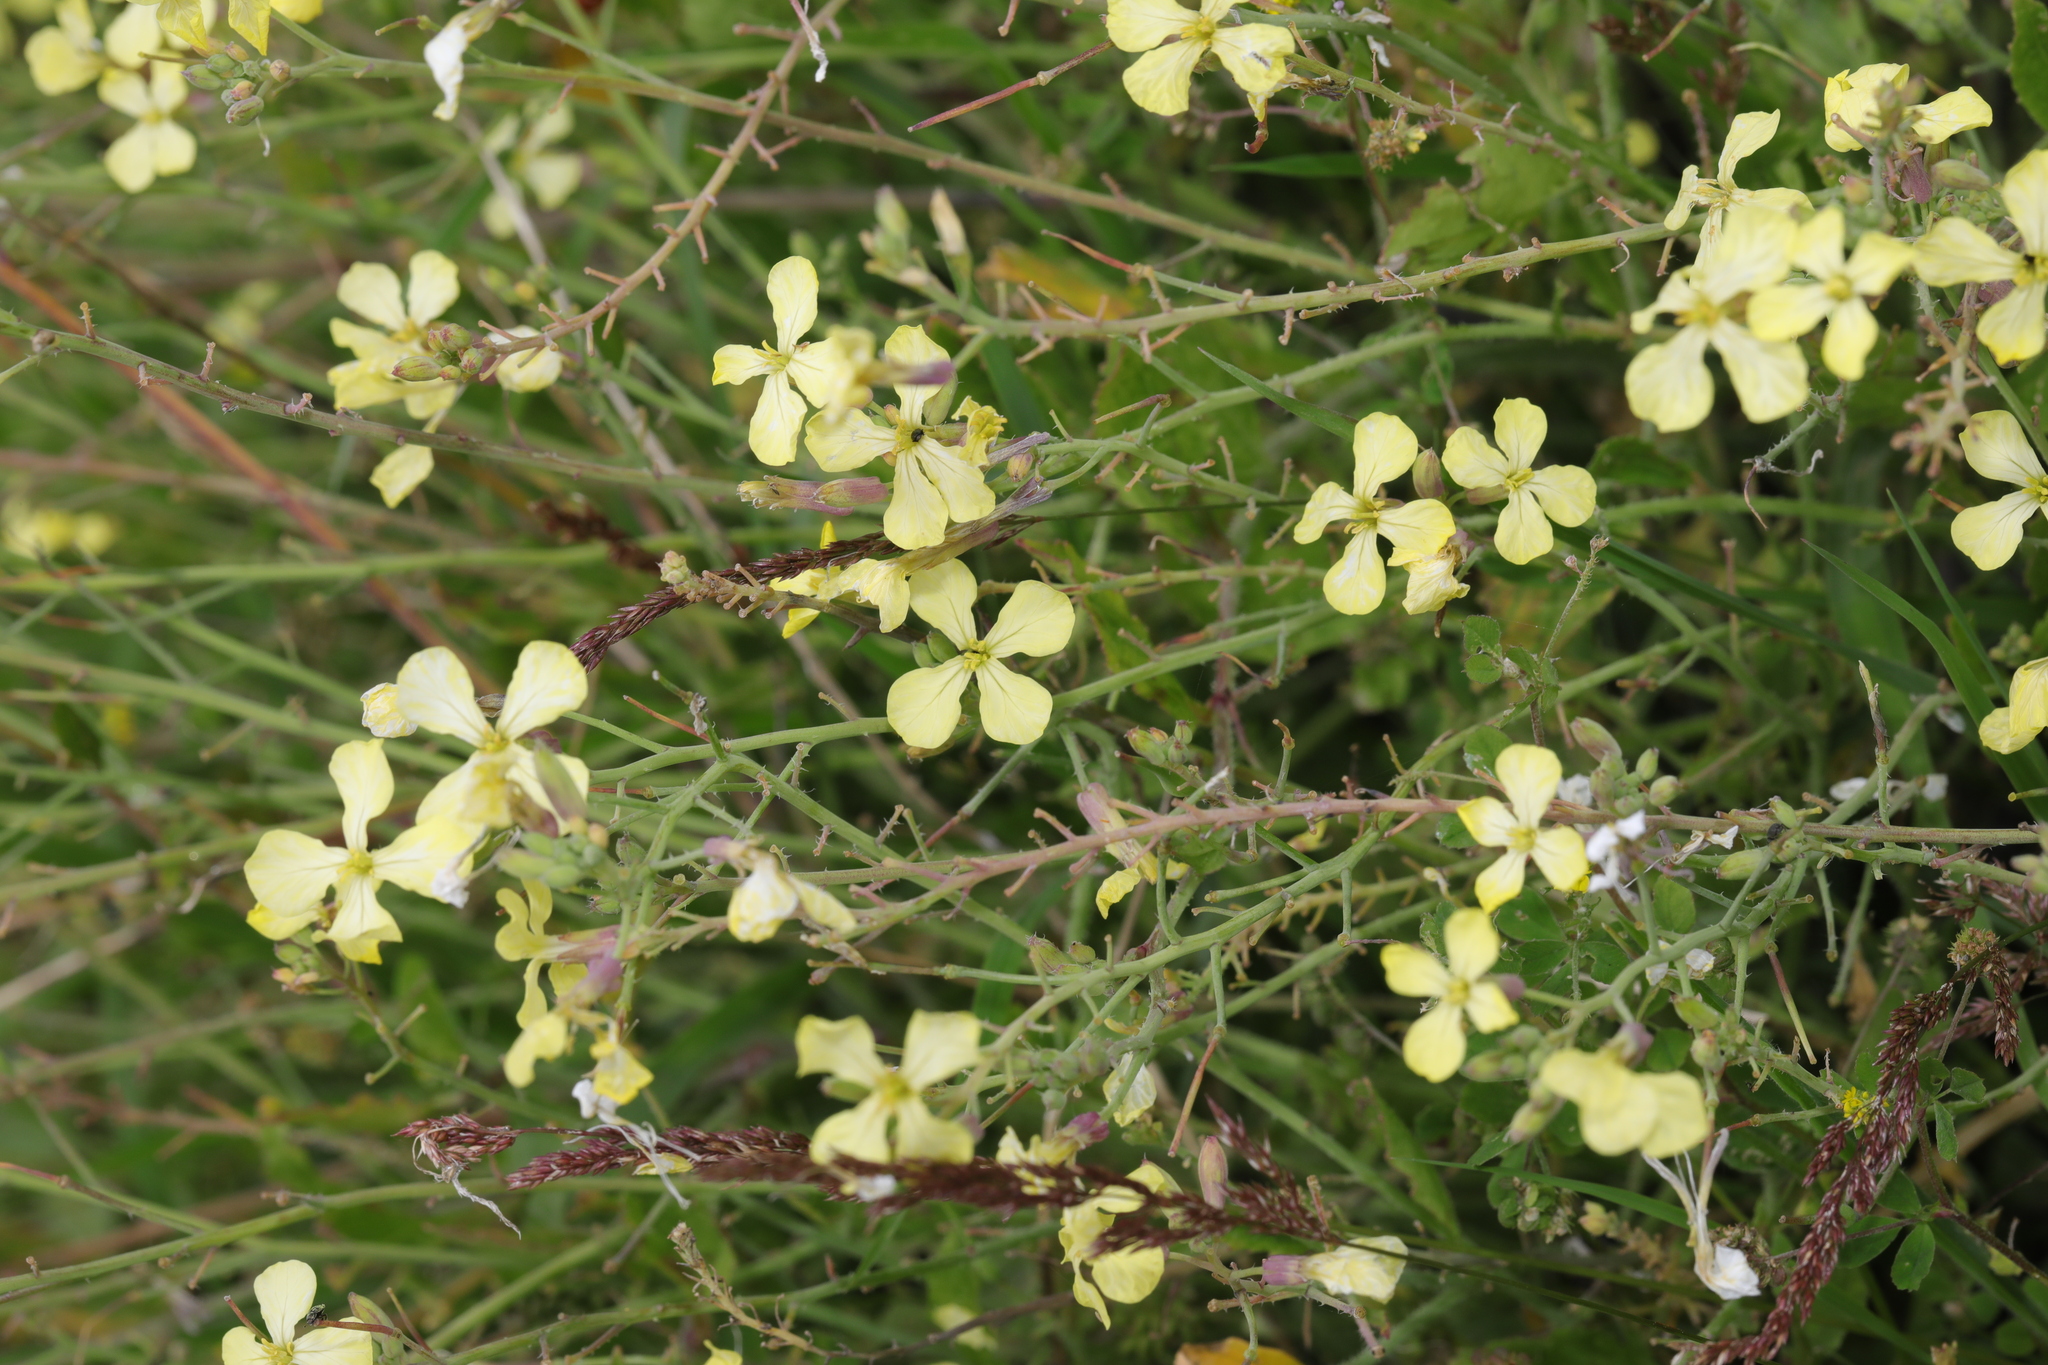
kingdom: Plantae
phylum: Tracheophyta
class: Magnoliopsida
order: Brassicales
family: Brassicaceae
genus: Raphanus
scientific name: Raphanus raphanistrum
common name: Wild radish
